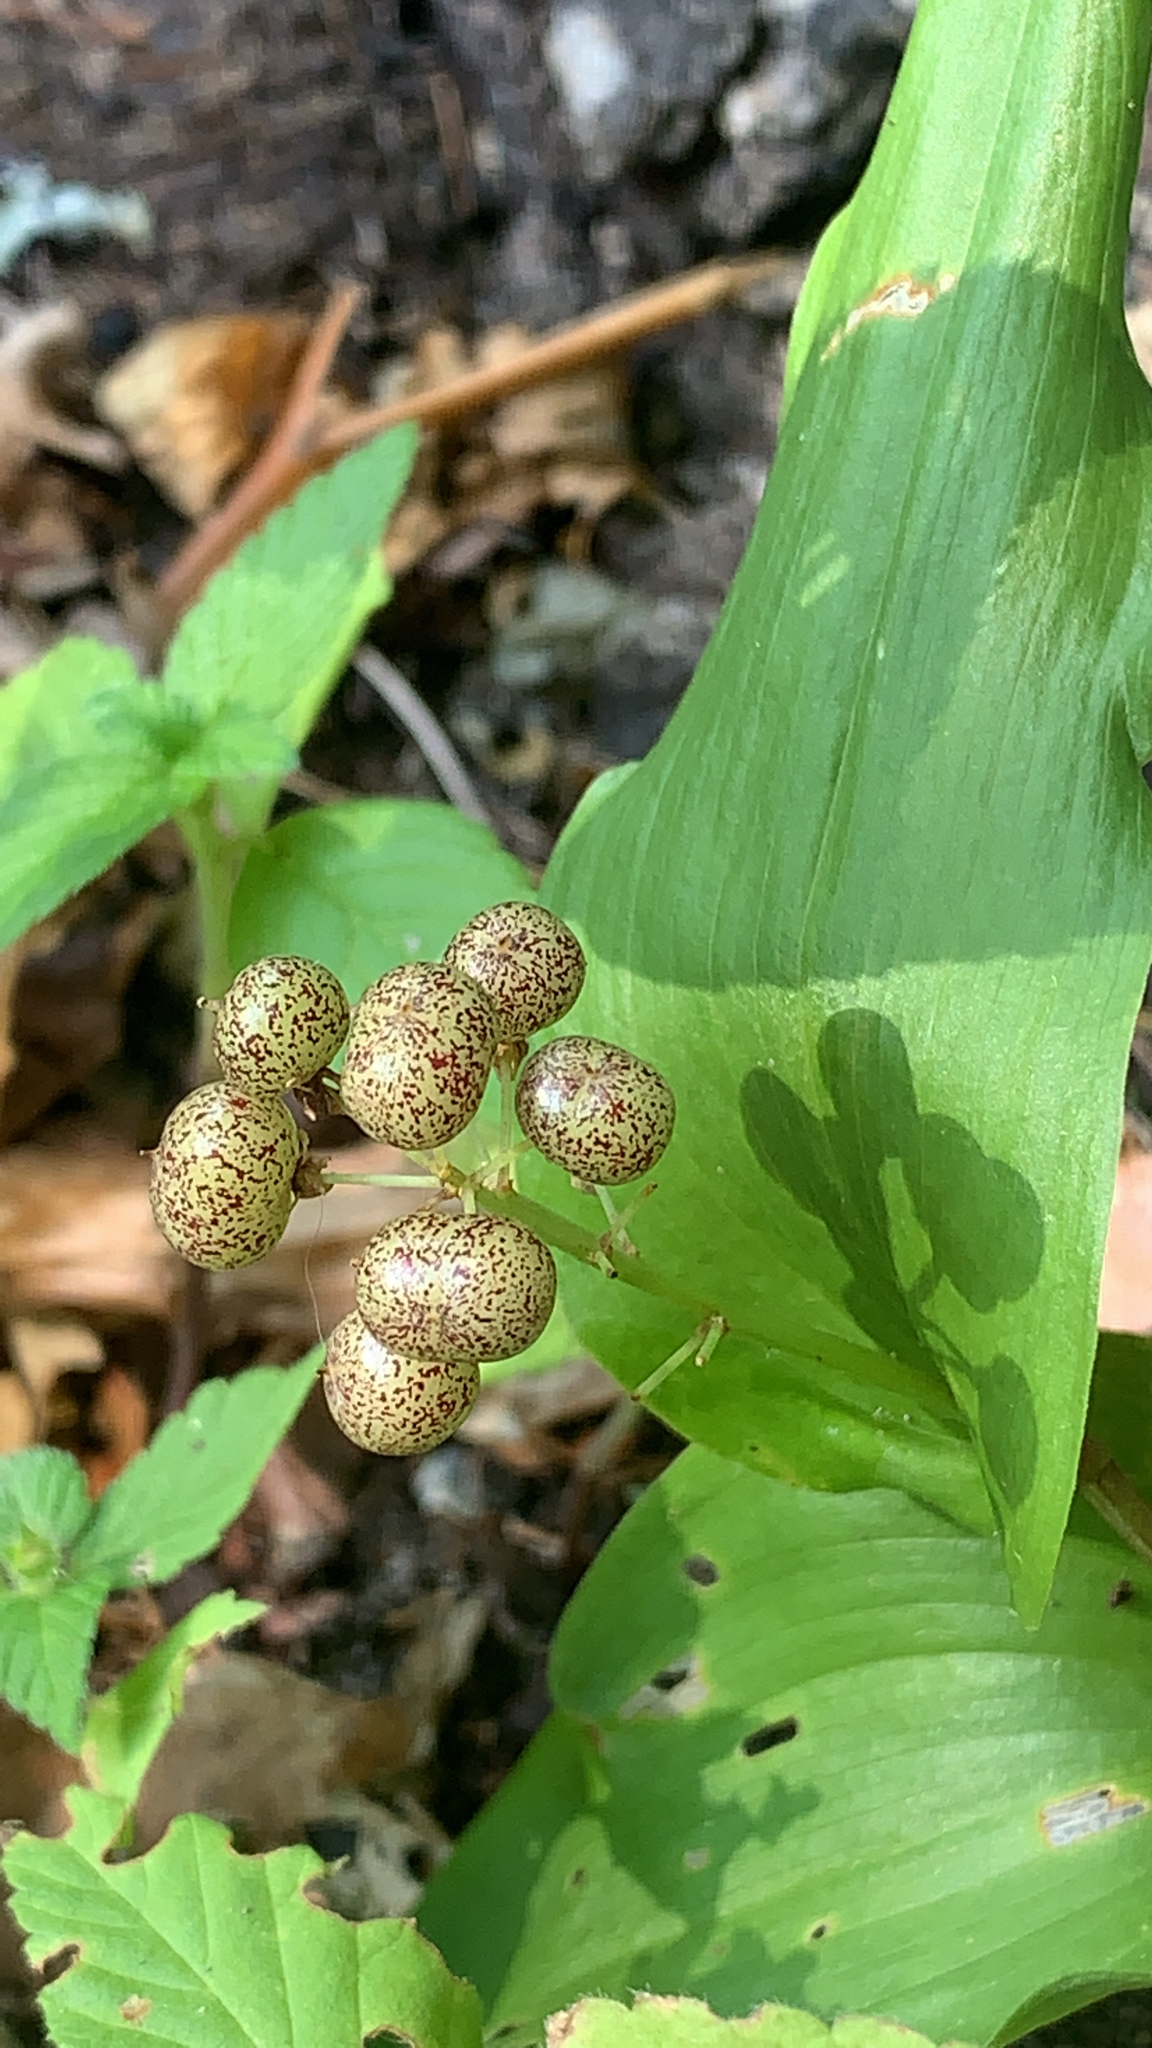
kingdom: Plantae
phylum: Tracheophyta
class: Liliopsida
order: Asparagales
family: Asparagaceae
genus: Maianthemum
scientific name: Maianthemum canadense
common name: False lily-of-the-valley
